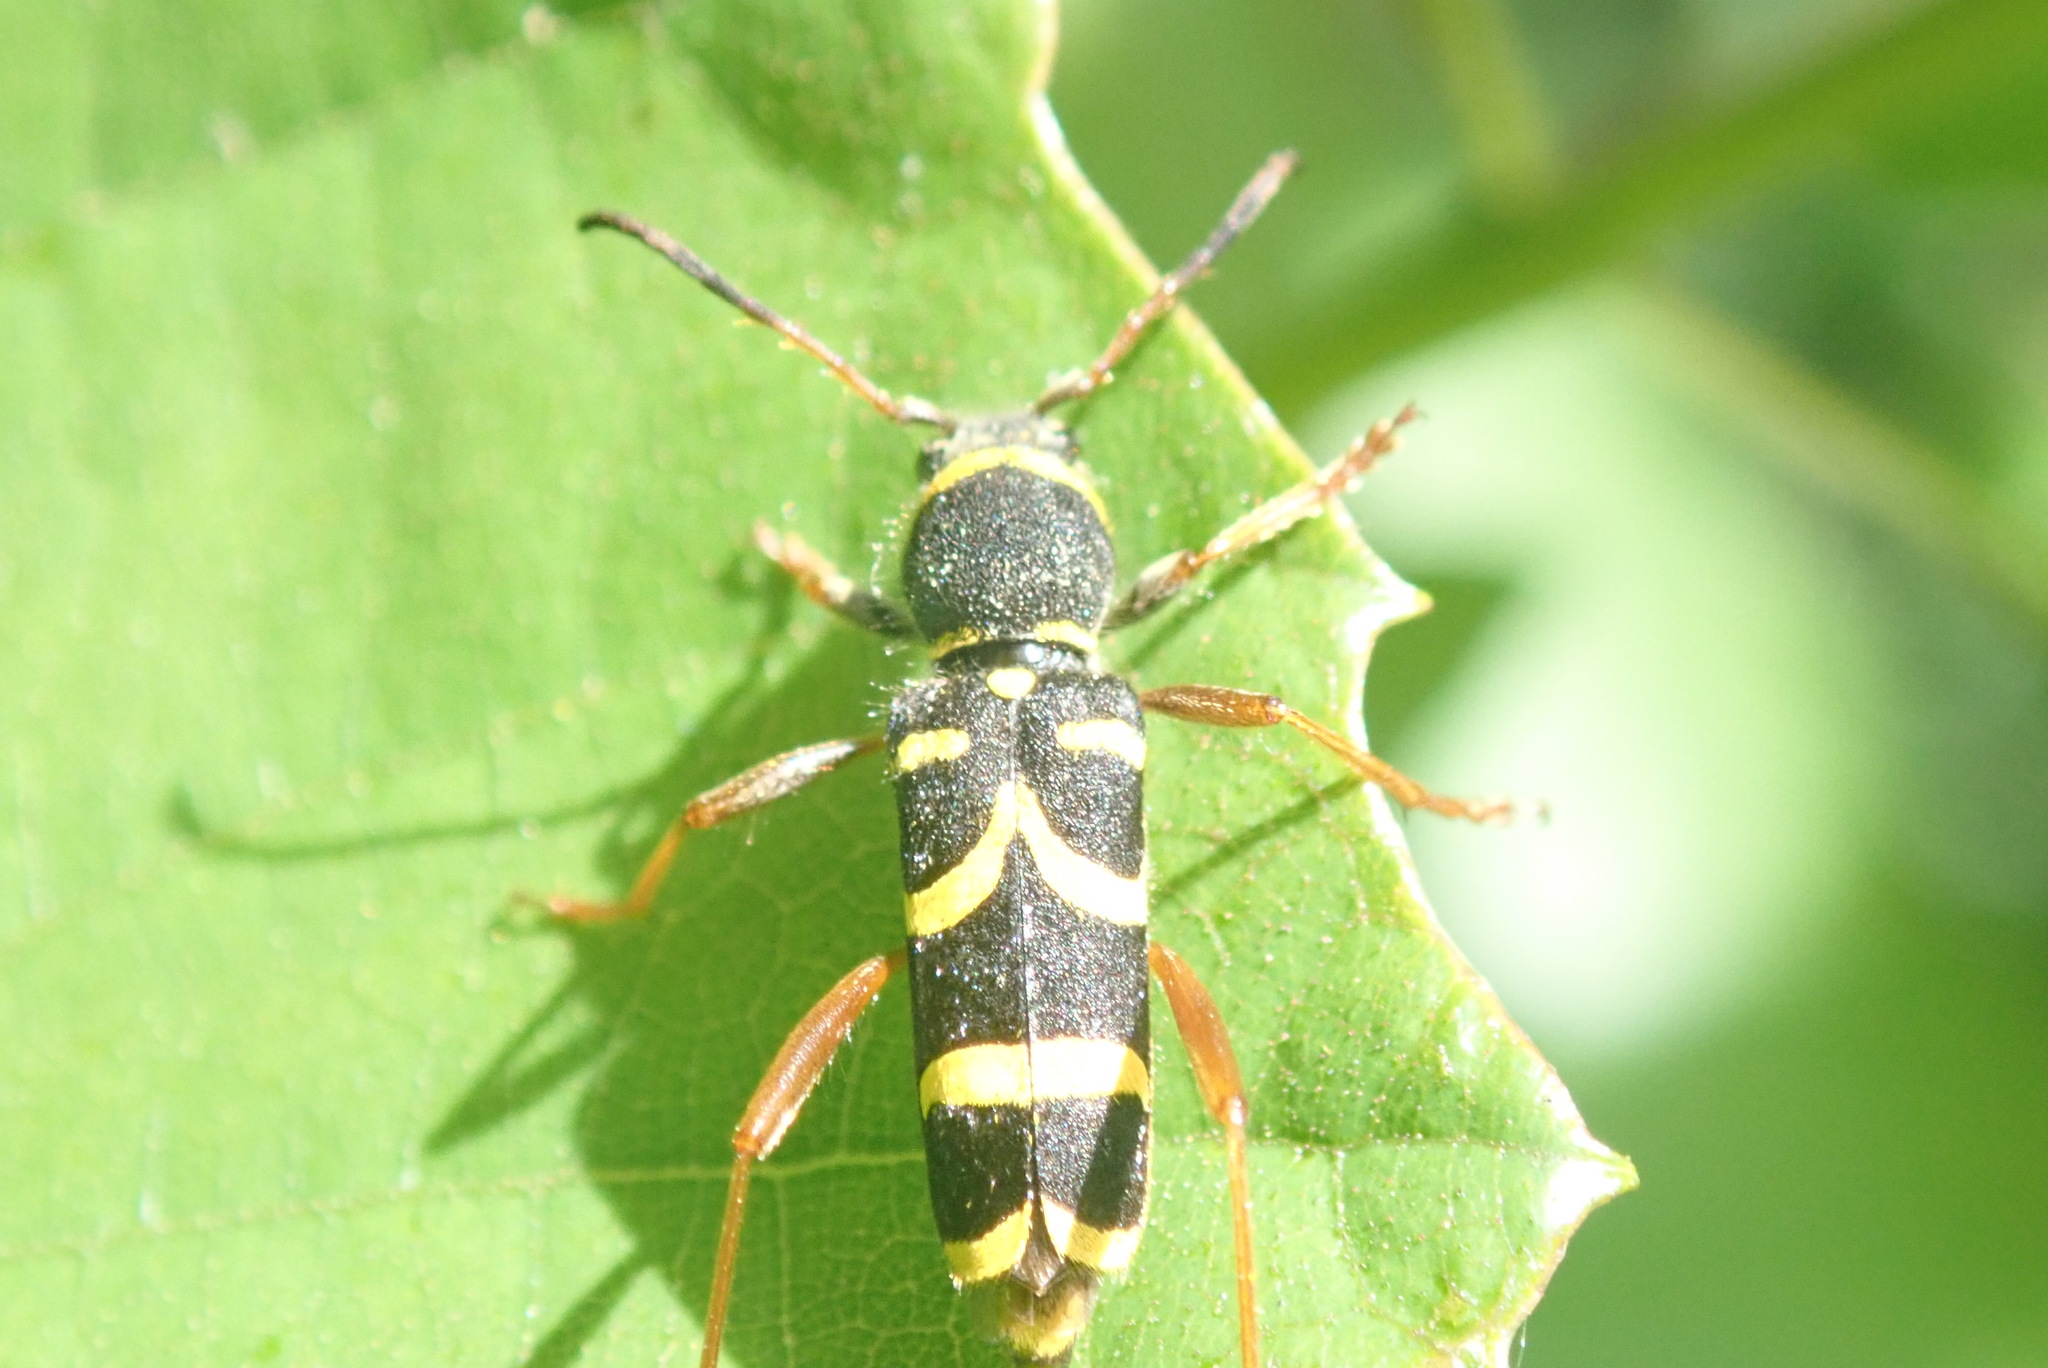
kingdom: Animalia
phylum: Arthropoda
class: Insecta
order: Coleoptera
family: Cerambycidae
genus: Clytus
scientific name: Clytus arietis
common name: Wasp beetle
